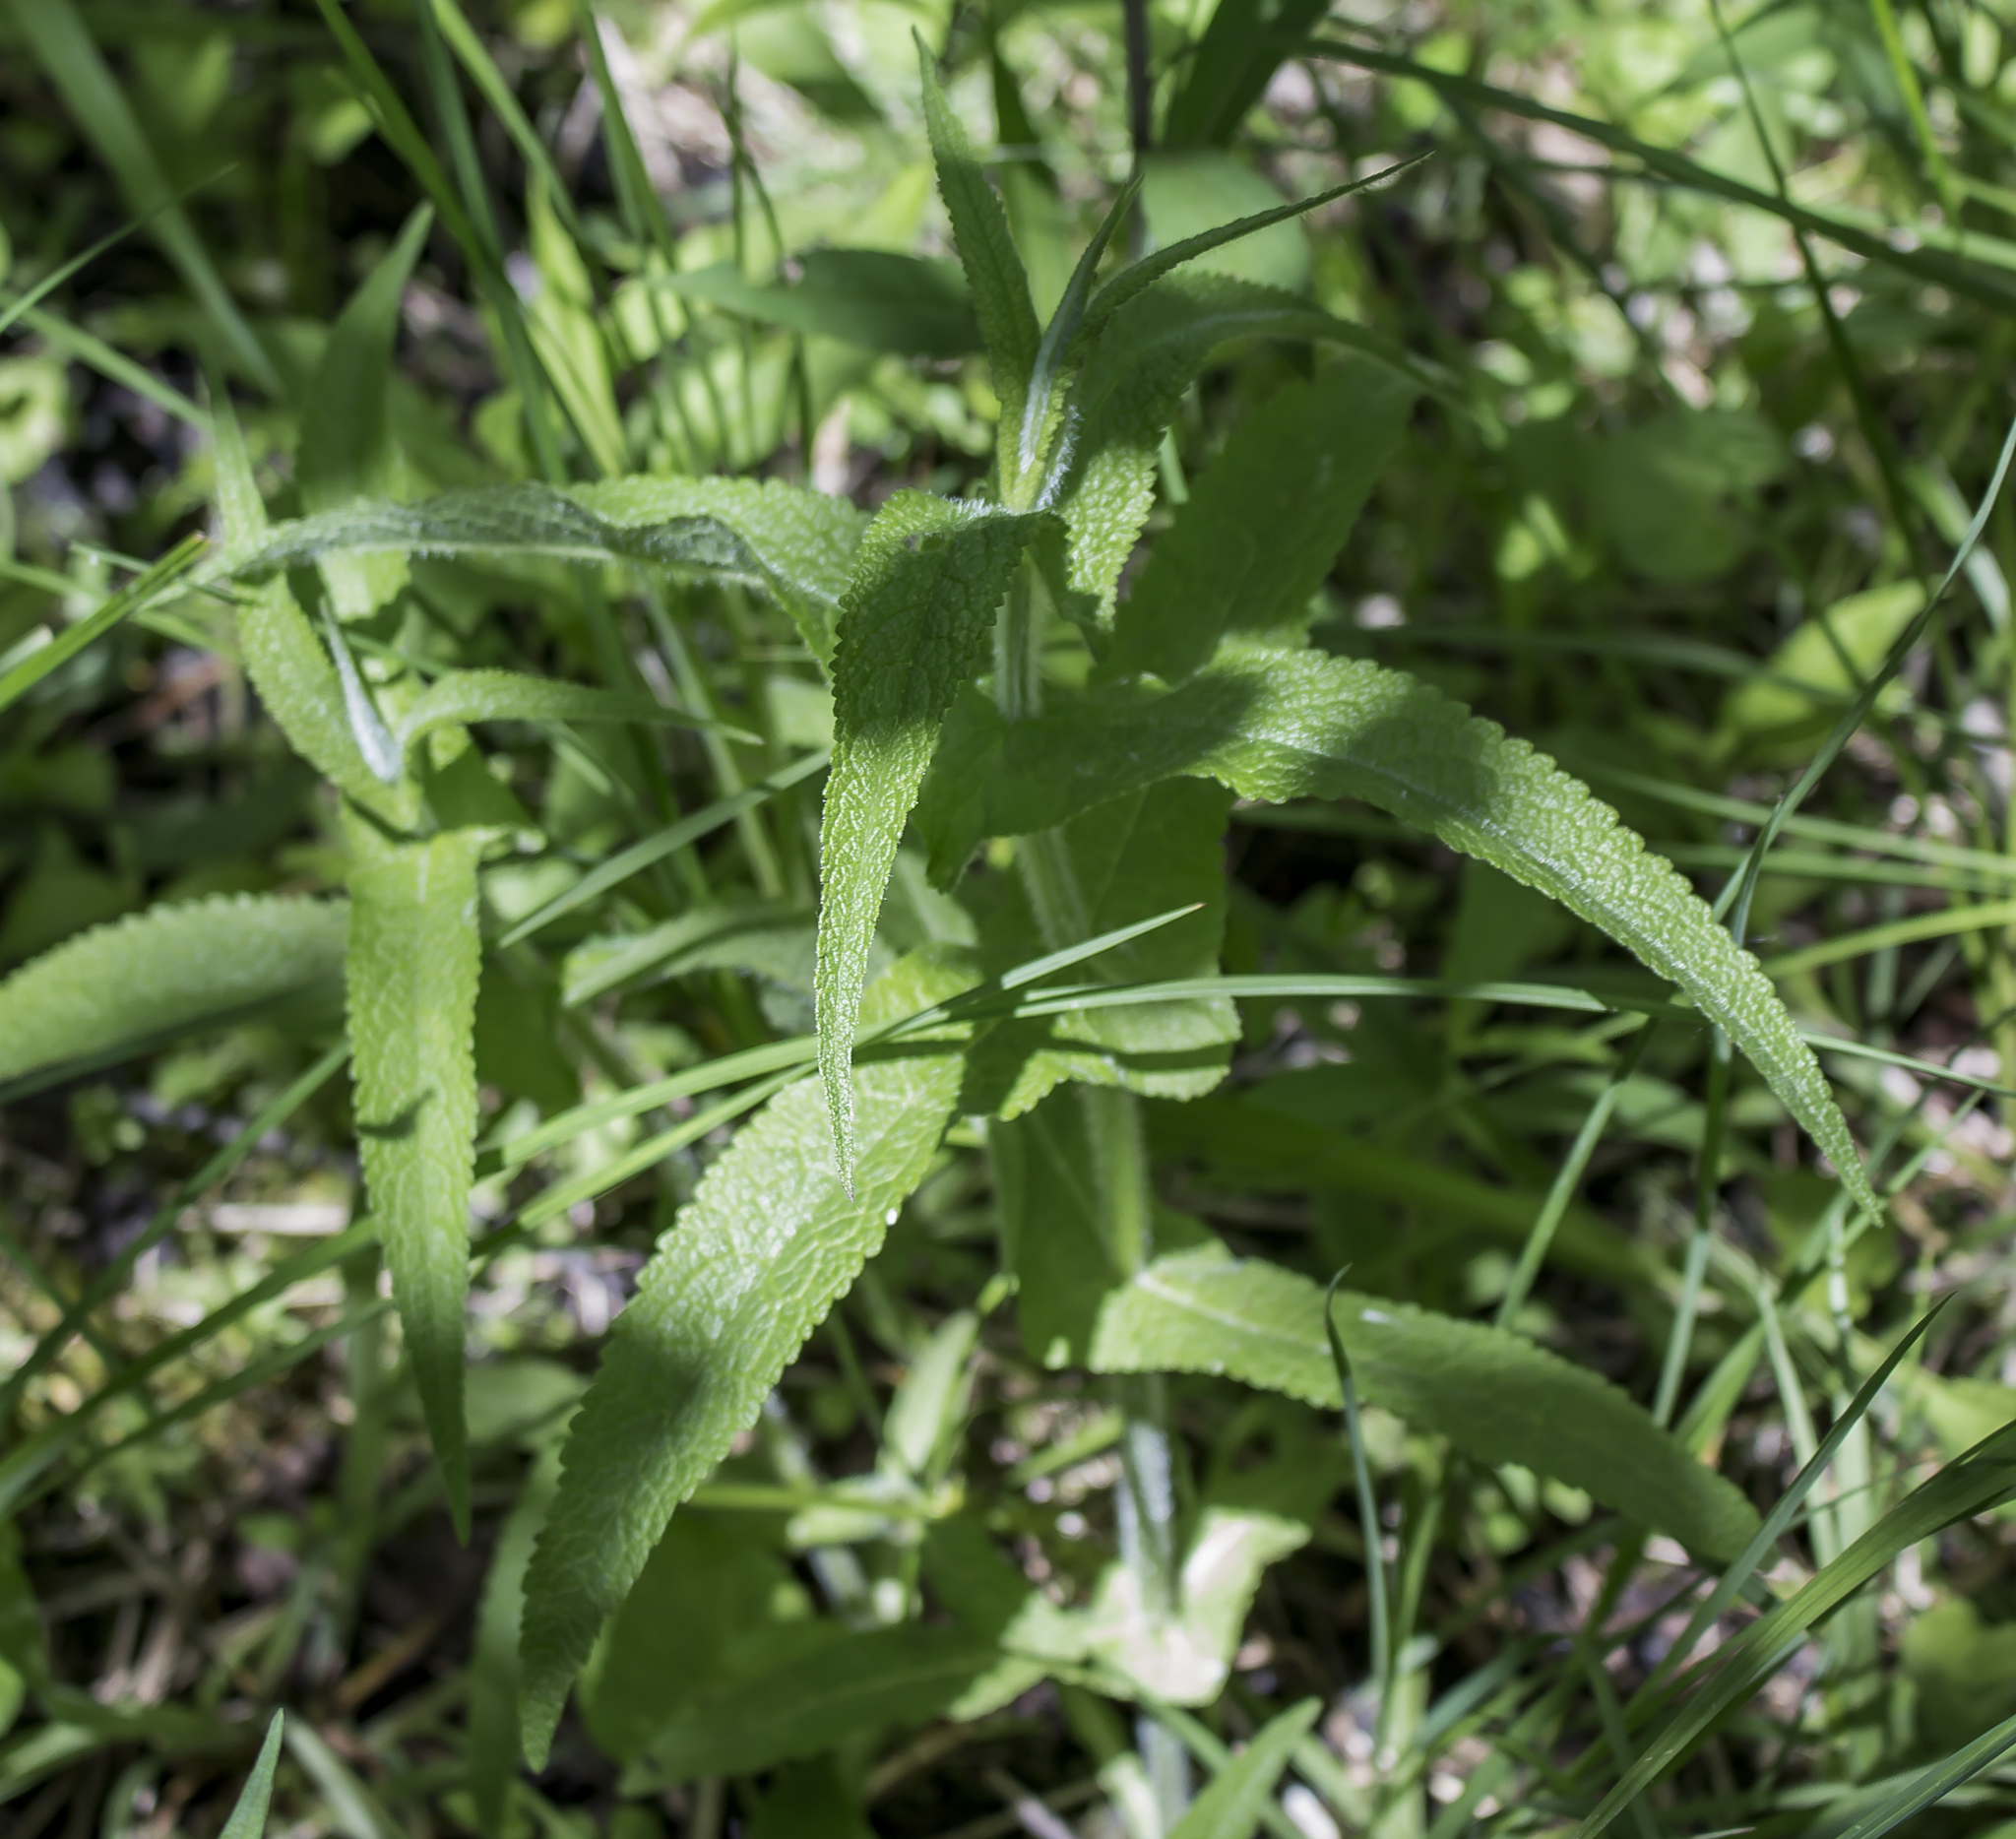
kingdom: Plantae
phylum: Tracheophyta
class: Magnoliopsida
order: Asterales
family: Asteraceae
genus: Eupatorium
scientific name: Eupatorium perfoliatum
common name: Boneset
